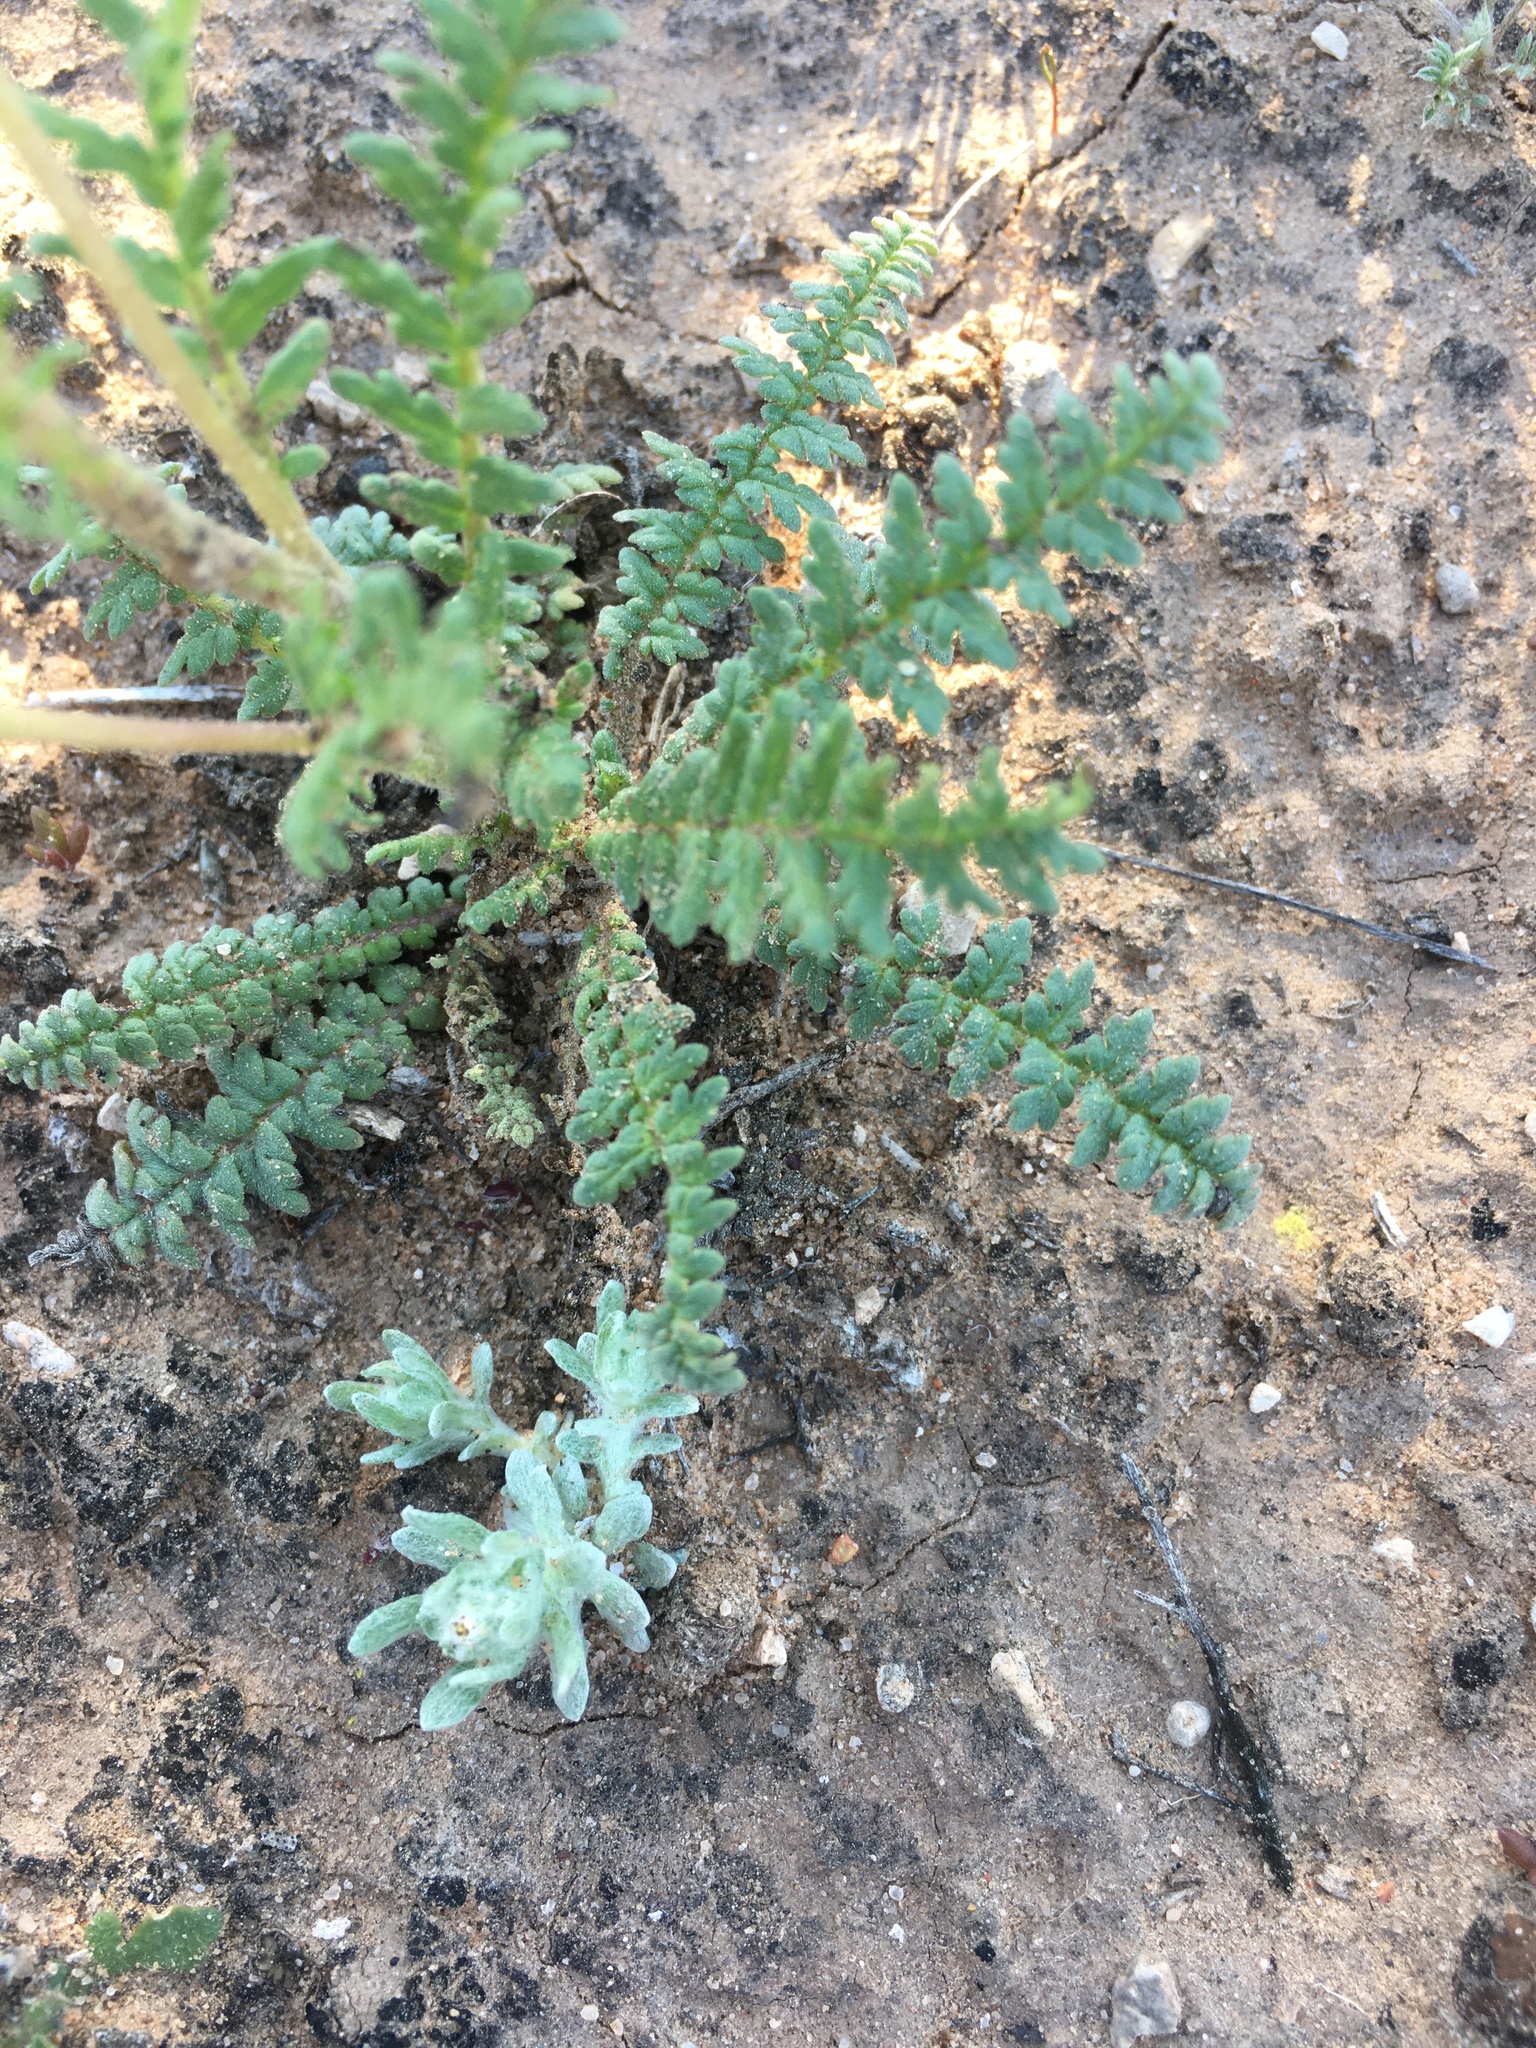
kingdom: Plantae
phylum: Tracheophyta
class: Magnoliopsida
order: Boraginales
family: Hydrophyllaceae
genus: Phacelia
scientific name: Phacelia popei
